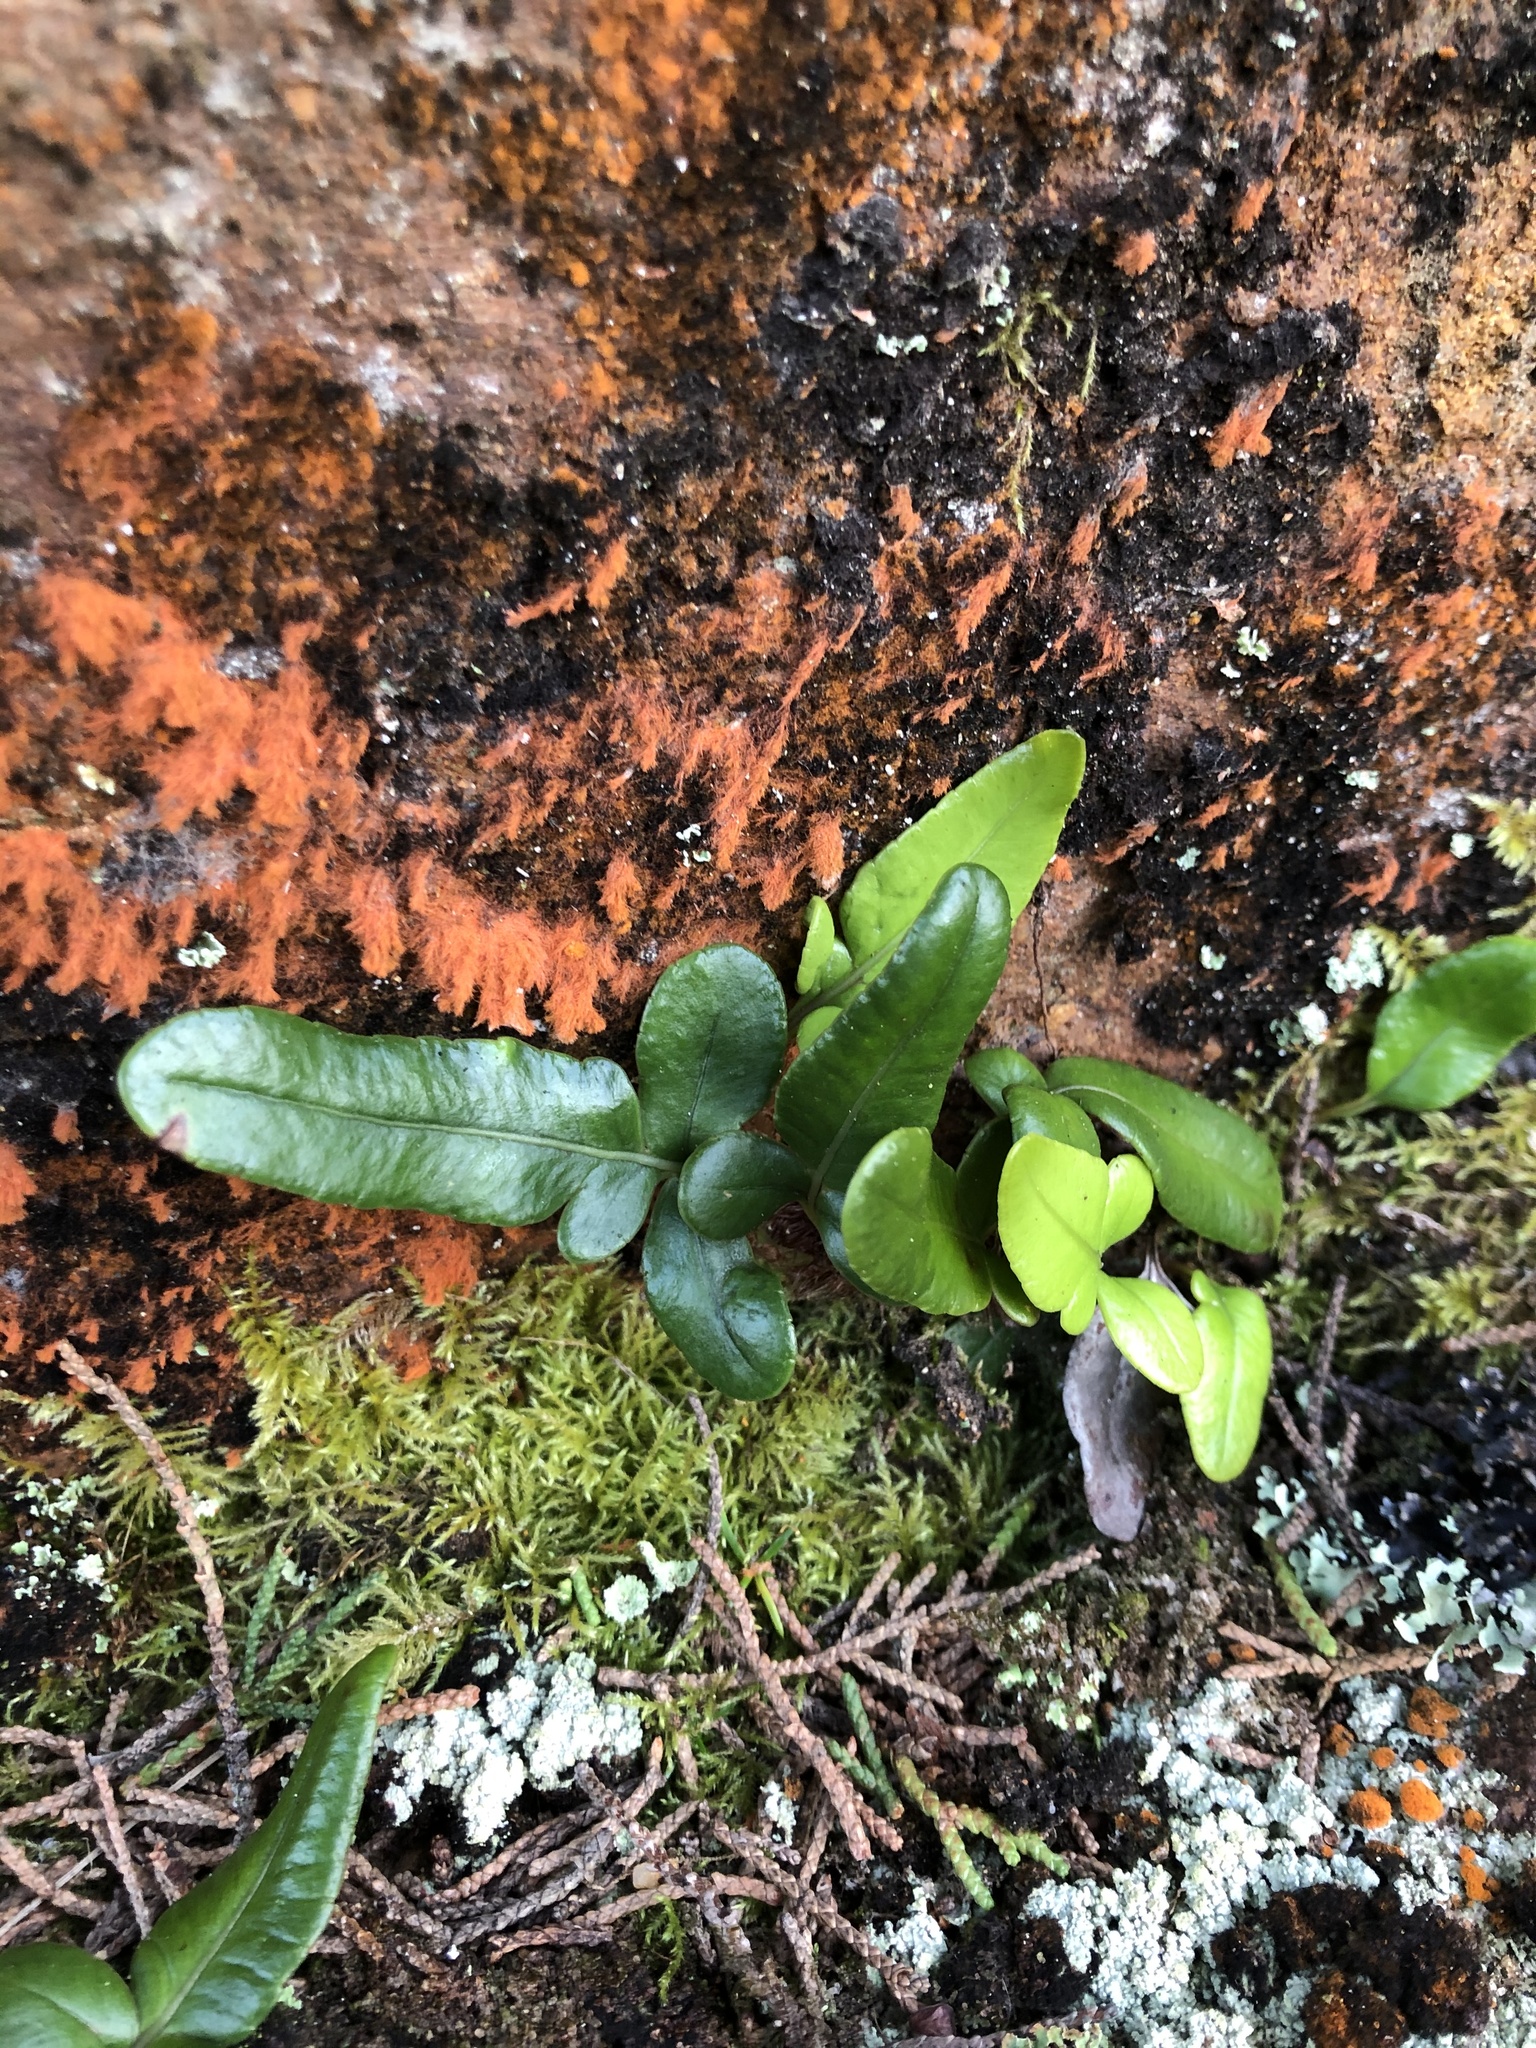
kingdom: Plantae
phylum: Tracheophyta
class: Polypodiopsida
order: Polypodiales
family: Polypodiaceae
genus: Polypodium
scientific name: Polypodium scouleri
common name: Scouler's polypody
